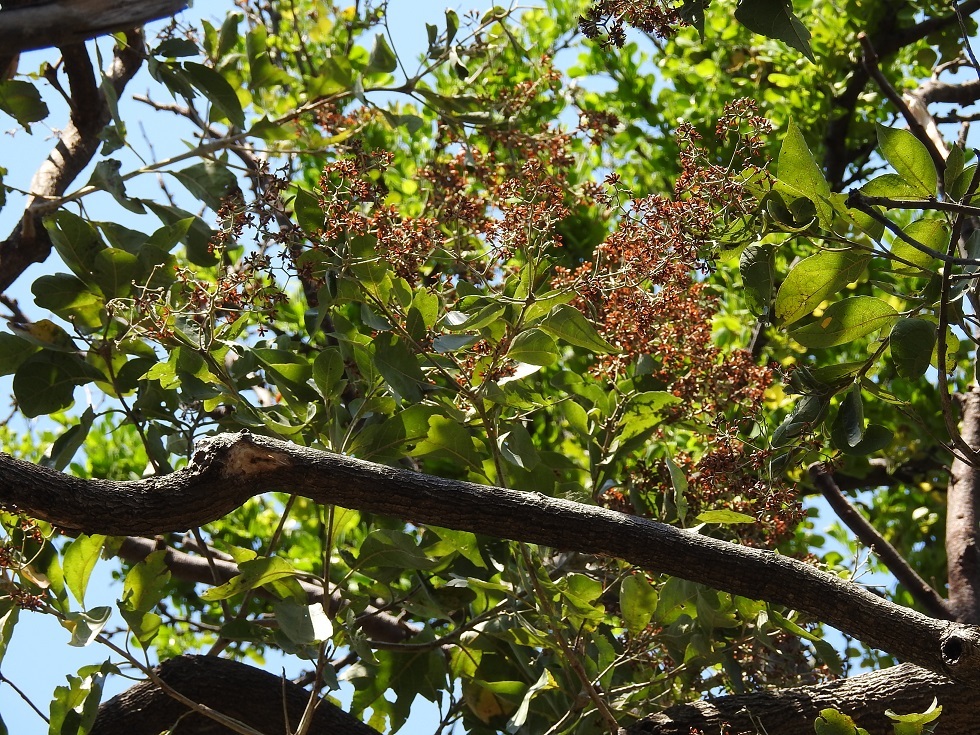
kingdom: Plantae
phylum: Tracheophyta
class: Magnoliopsida
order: Boraginales
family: Cordiaceae
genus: Cordia
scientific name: Cordia alliodora
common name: Spanish elm
